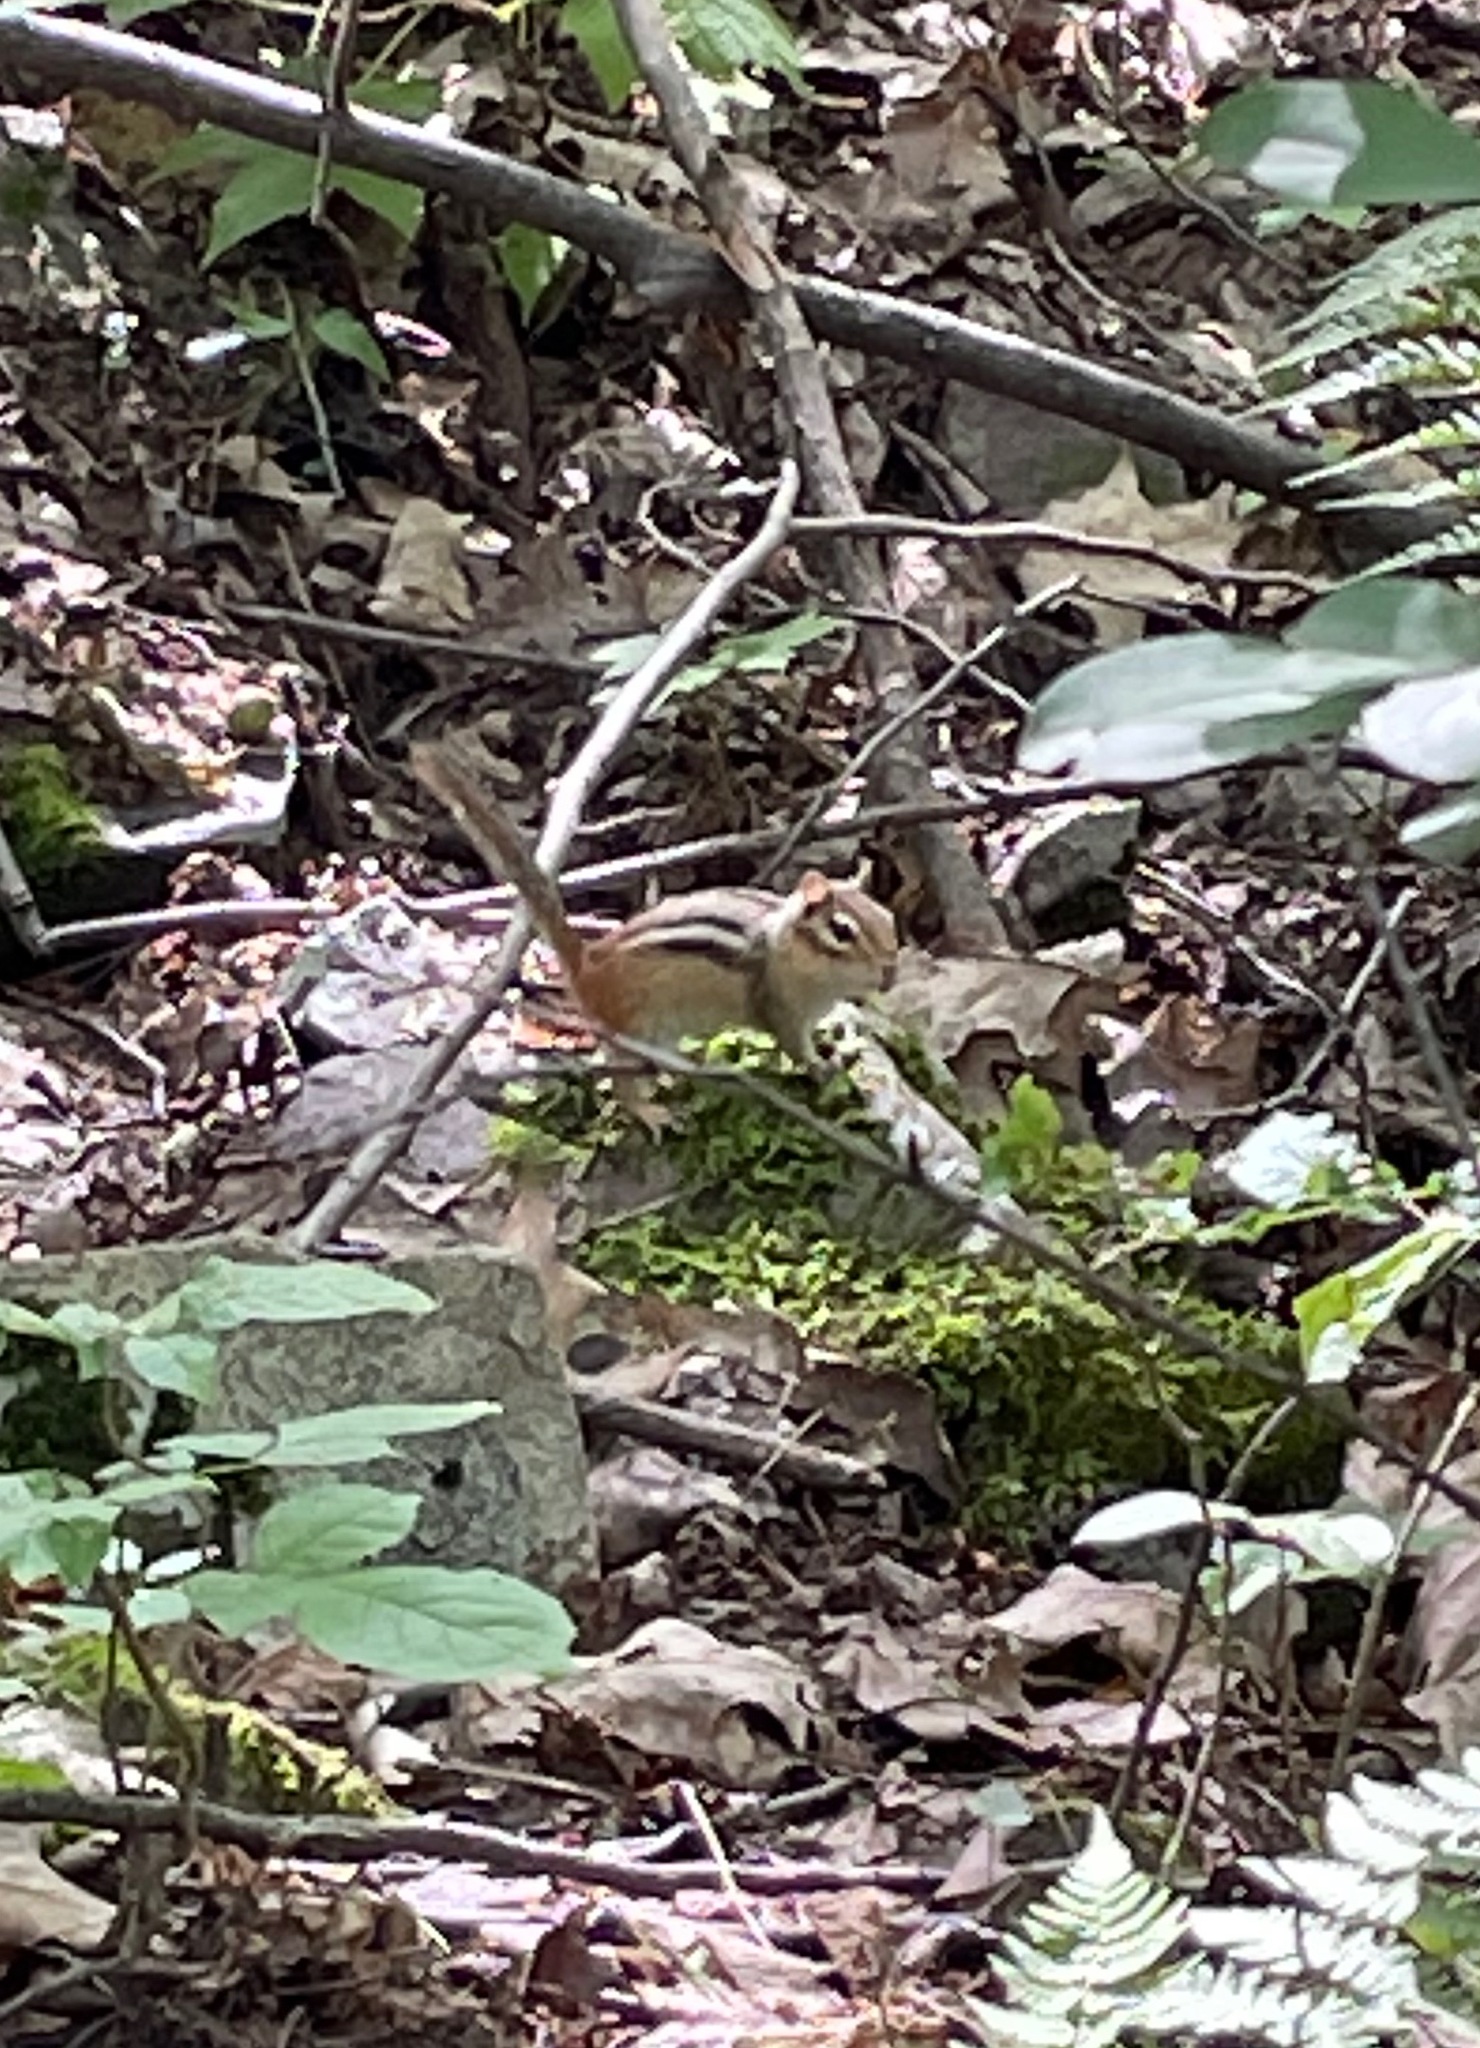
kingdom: Animalia
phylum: Chordata
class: Mammalia
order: Rodentia
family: Sciuridae
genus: Tamias
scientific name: Tamias striatus
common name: Eastern chipmunk
